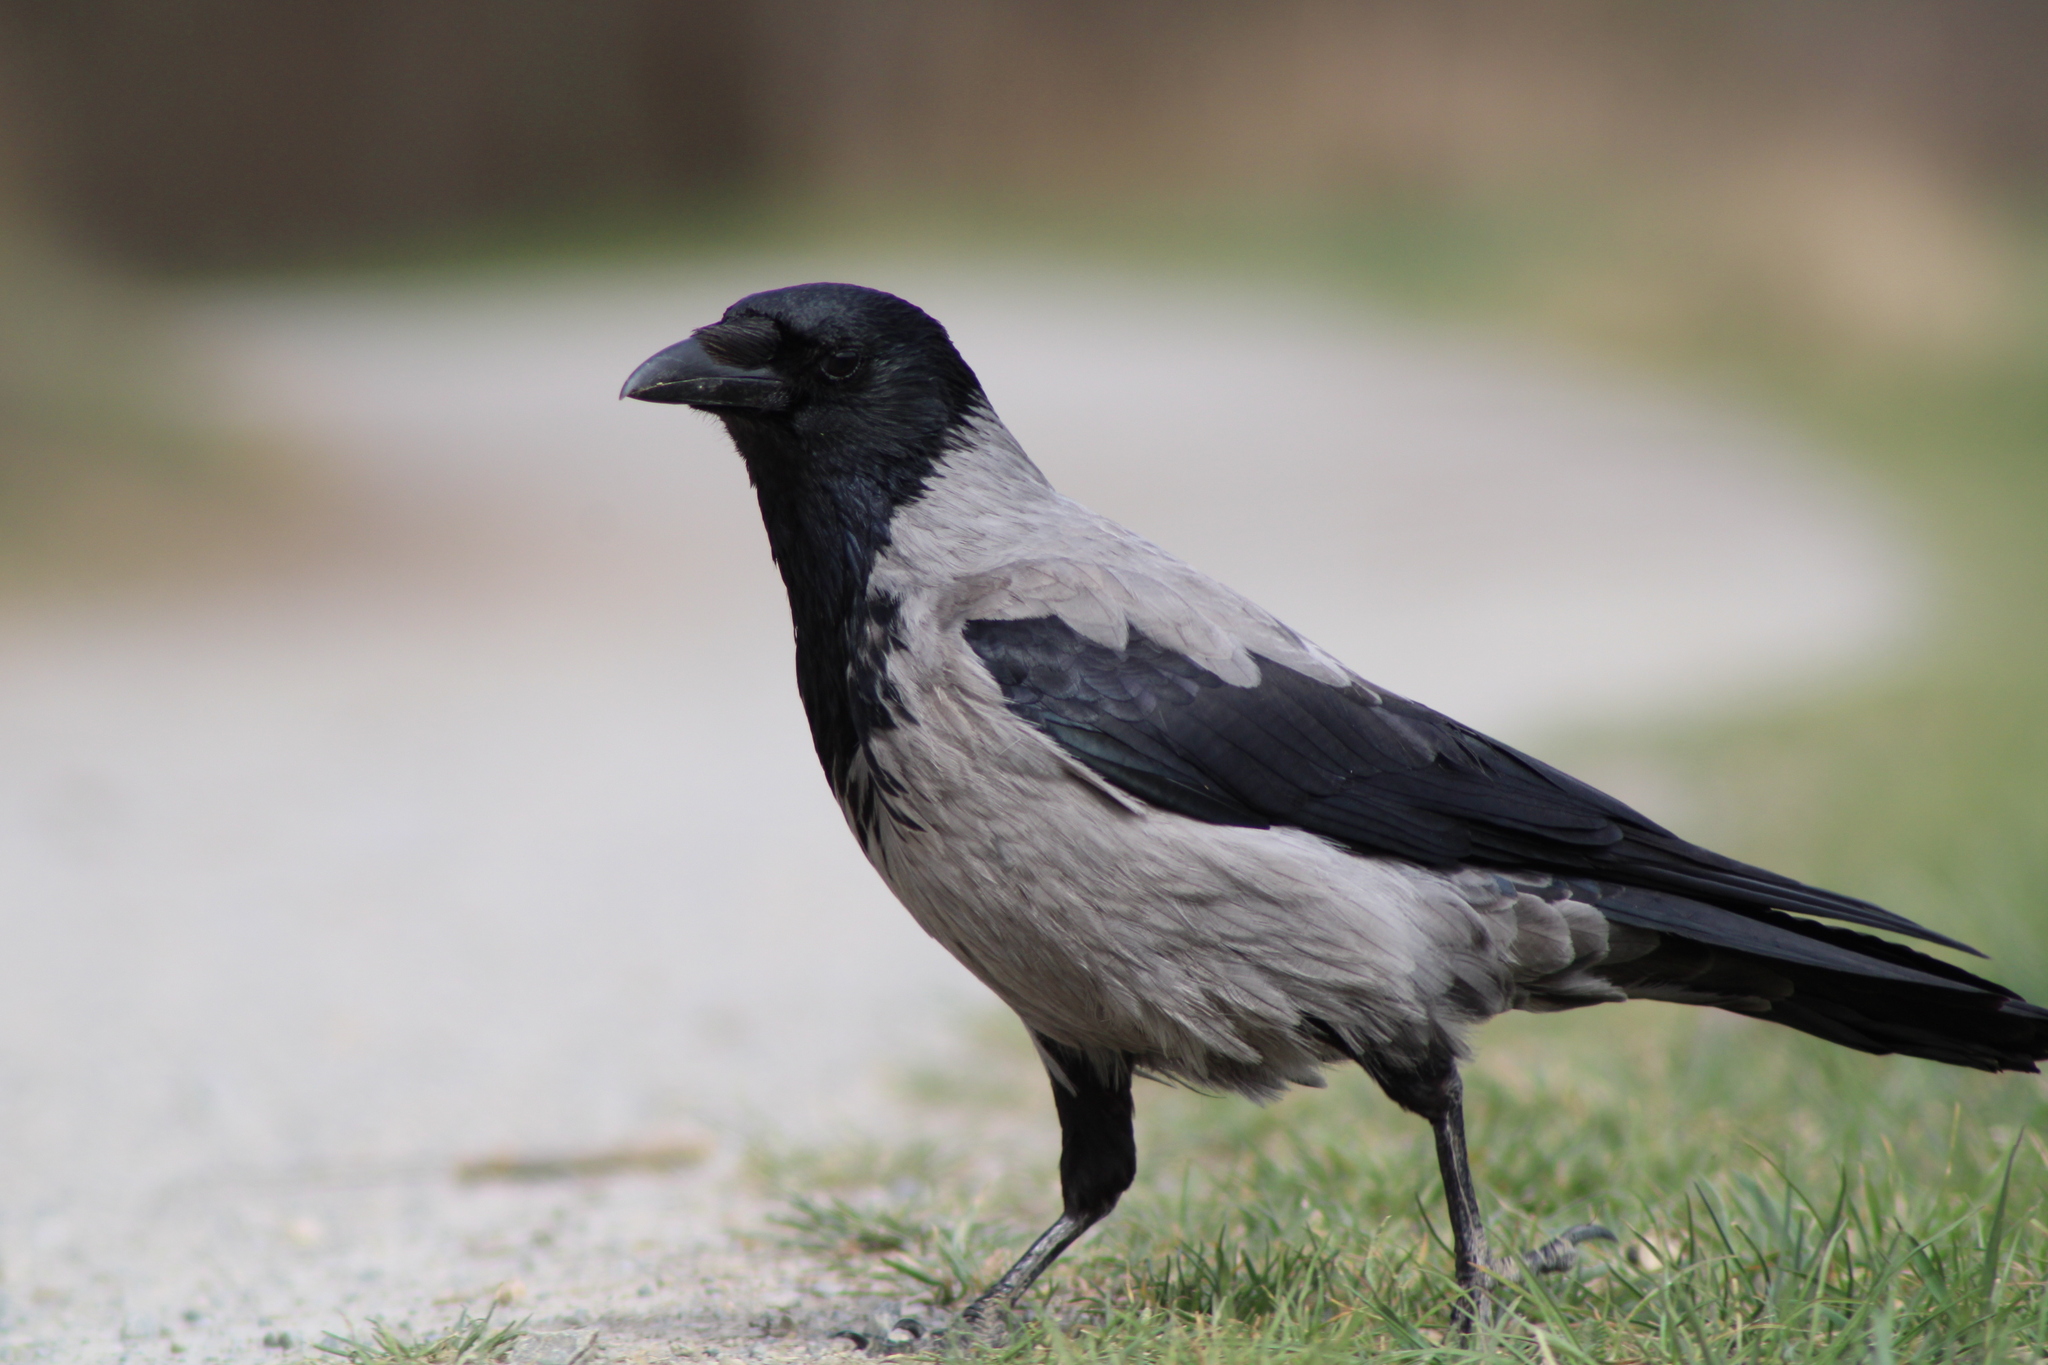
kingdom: Animalia
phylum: Chordata
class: Aves
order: Passeriformes
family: Corvidae
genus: Corvus
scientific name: Corvus cornix
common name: Hooded crow
